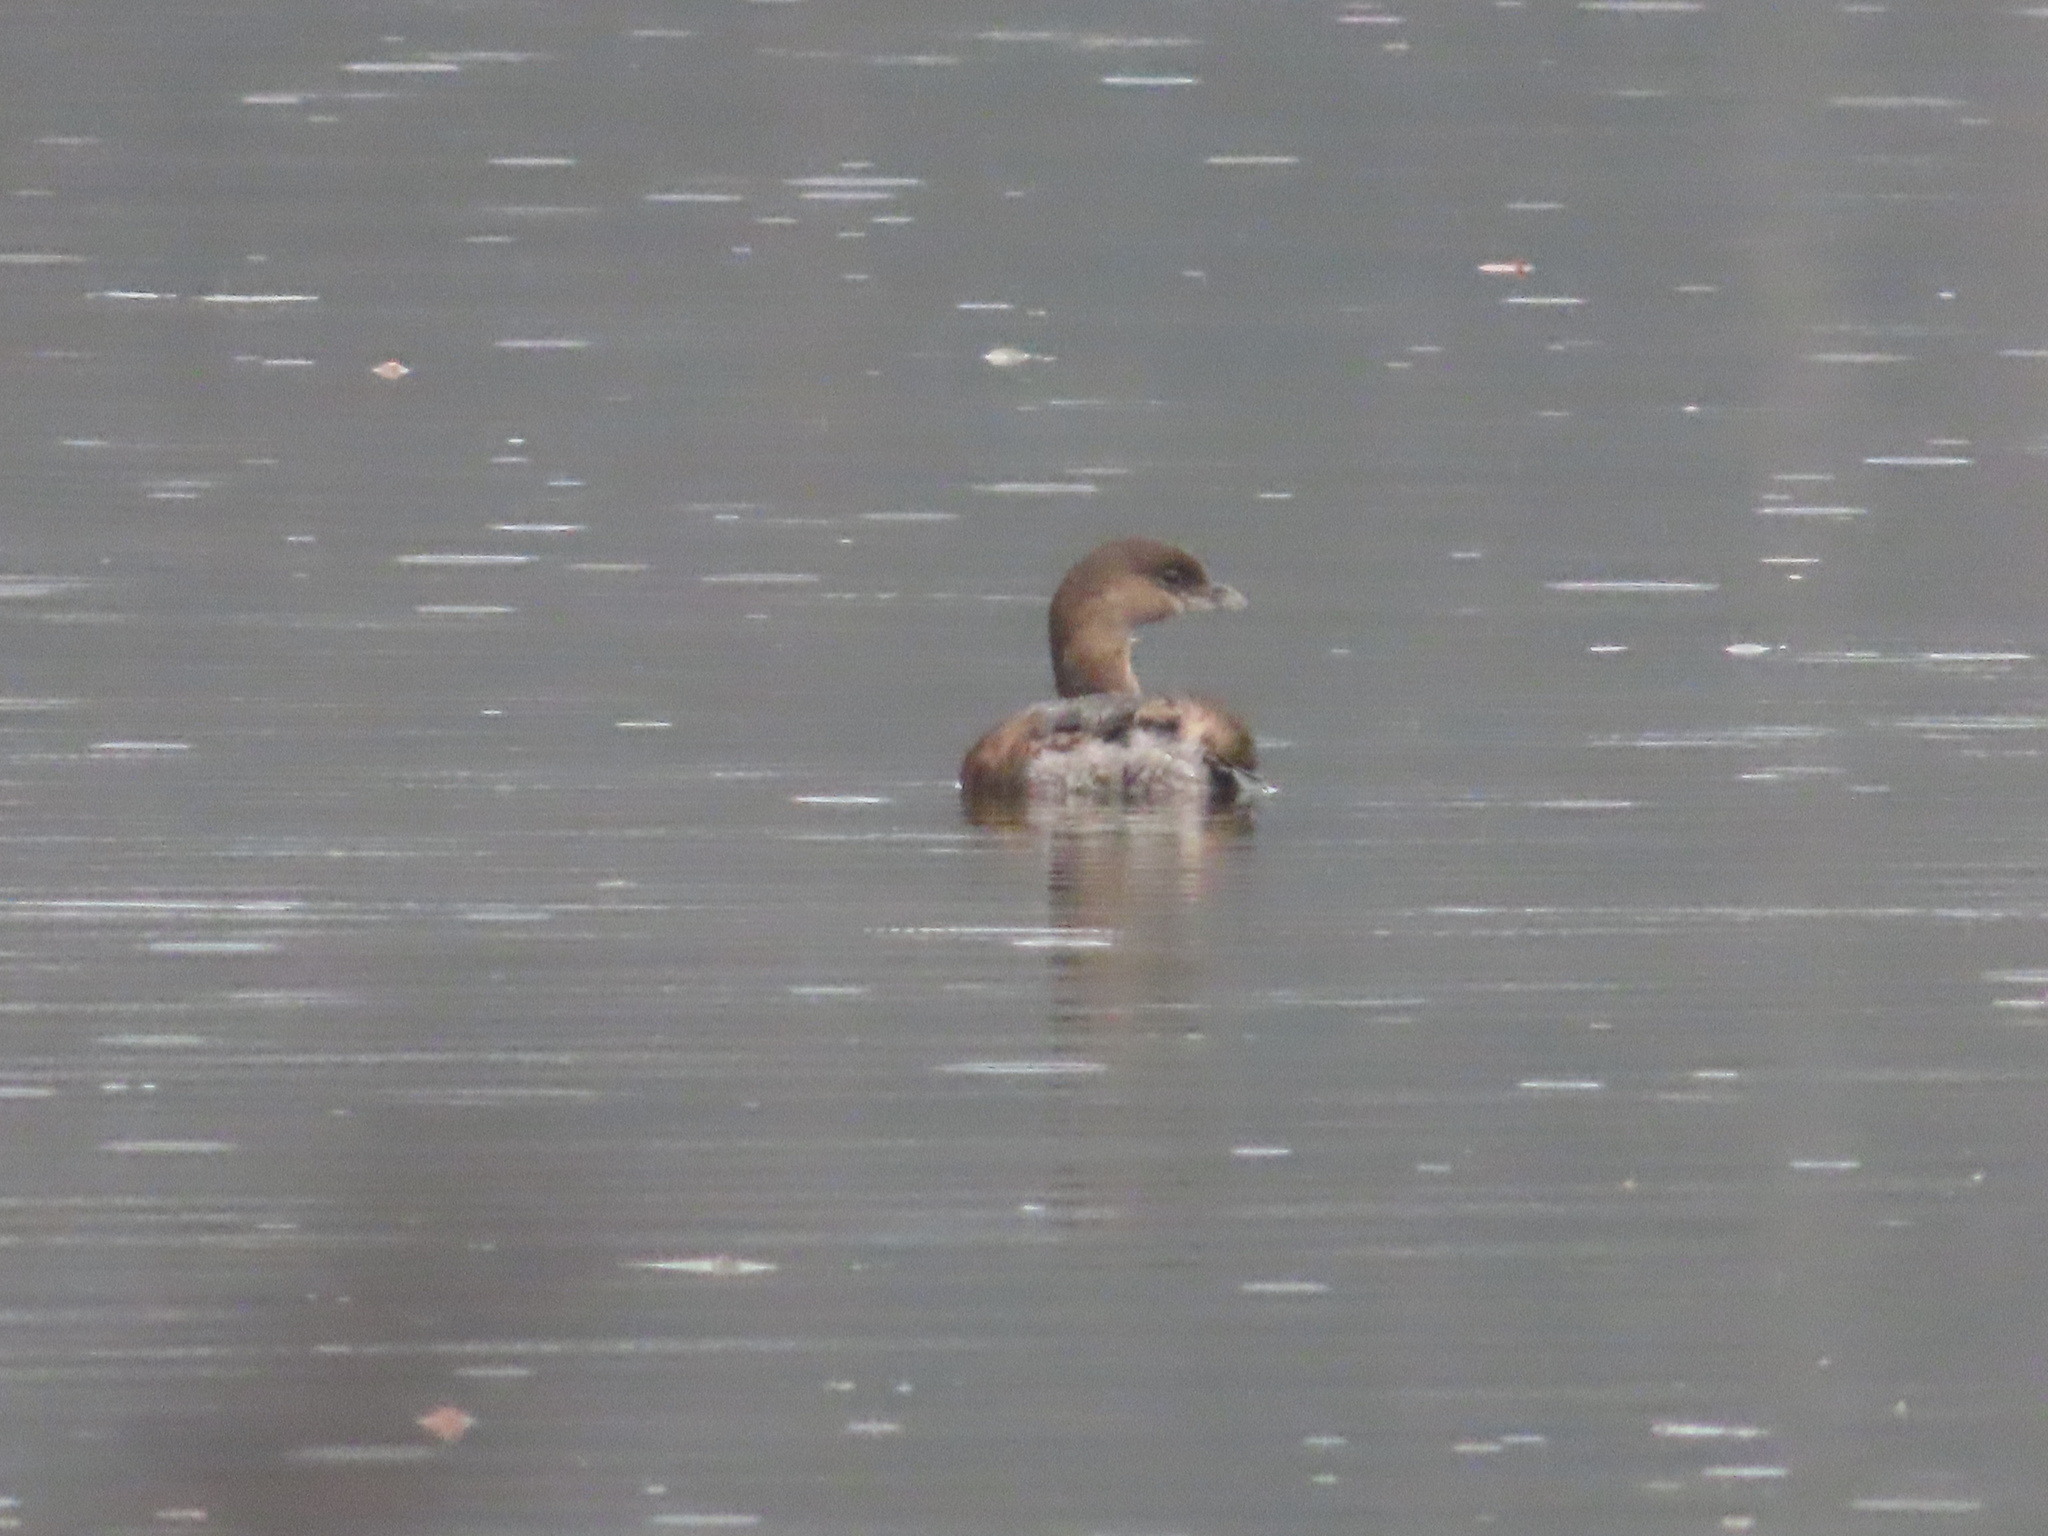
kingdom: Animalia
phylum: Chordata
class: Aves
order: Podicipediformes
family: Podicipedidae
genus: Podilymbus
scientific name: Podilymbus podiceps
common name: Pied-billed grebe
